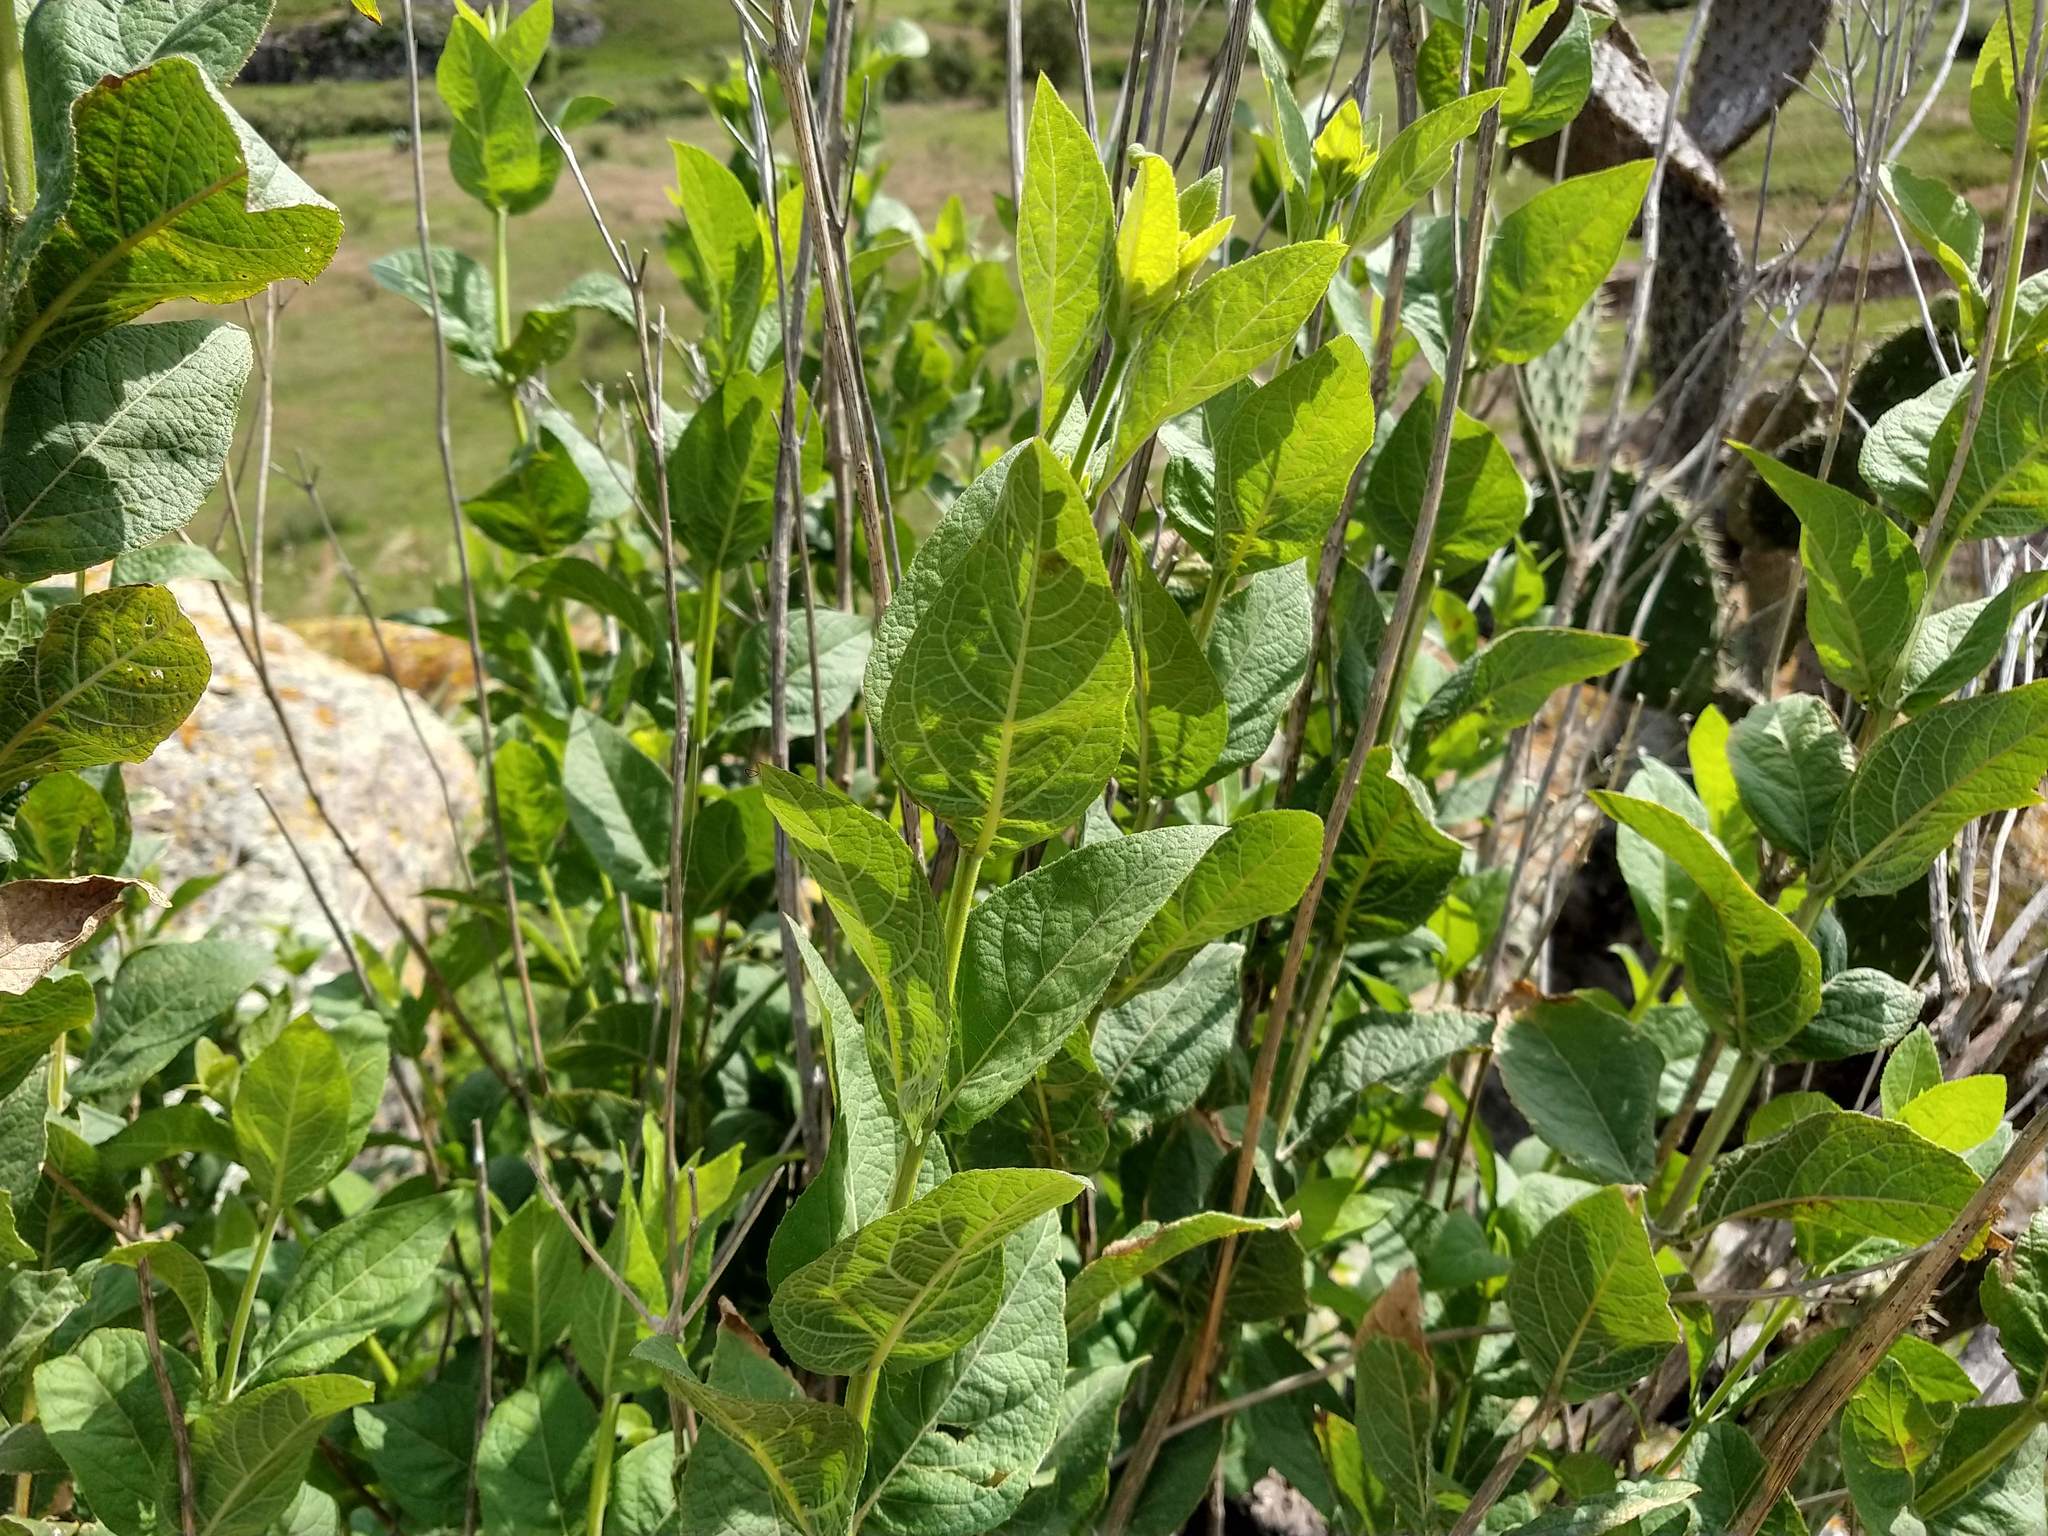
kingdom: Plantae
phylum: Tracheophyta
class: Magnoliopsida
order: Asterales
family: Asteraceae
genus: Verbesina
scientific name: Verbesina sphaerocephala
